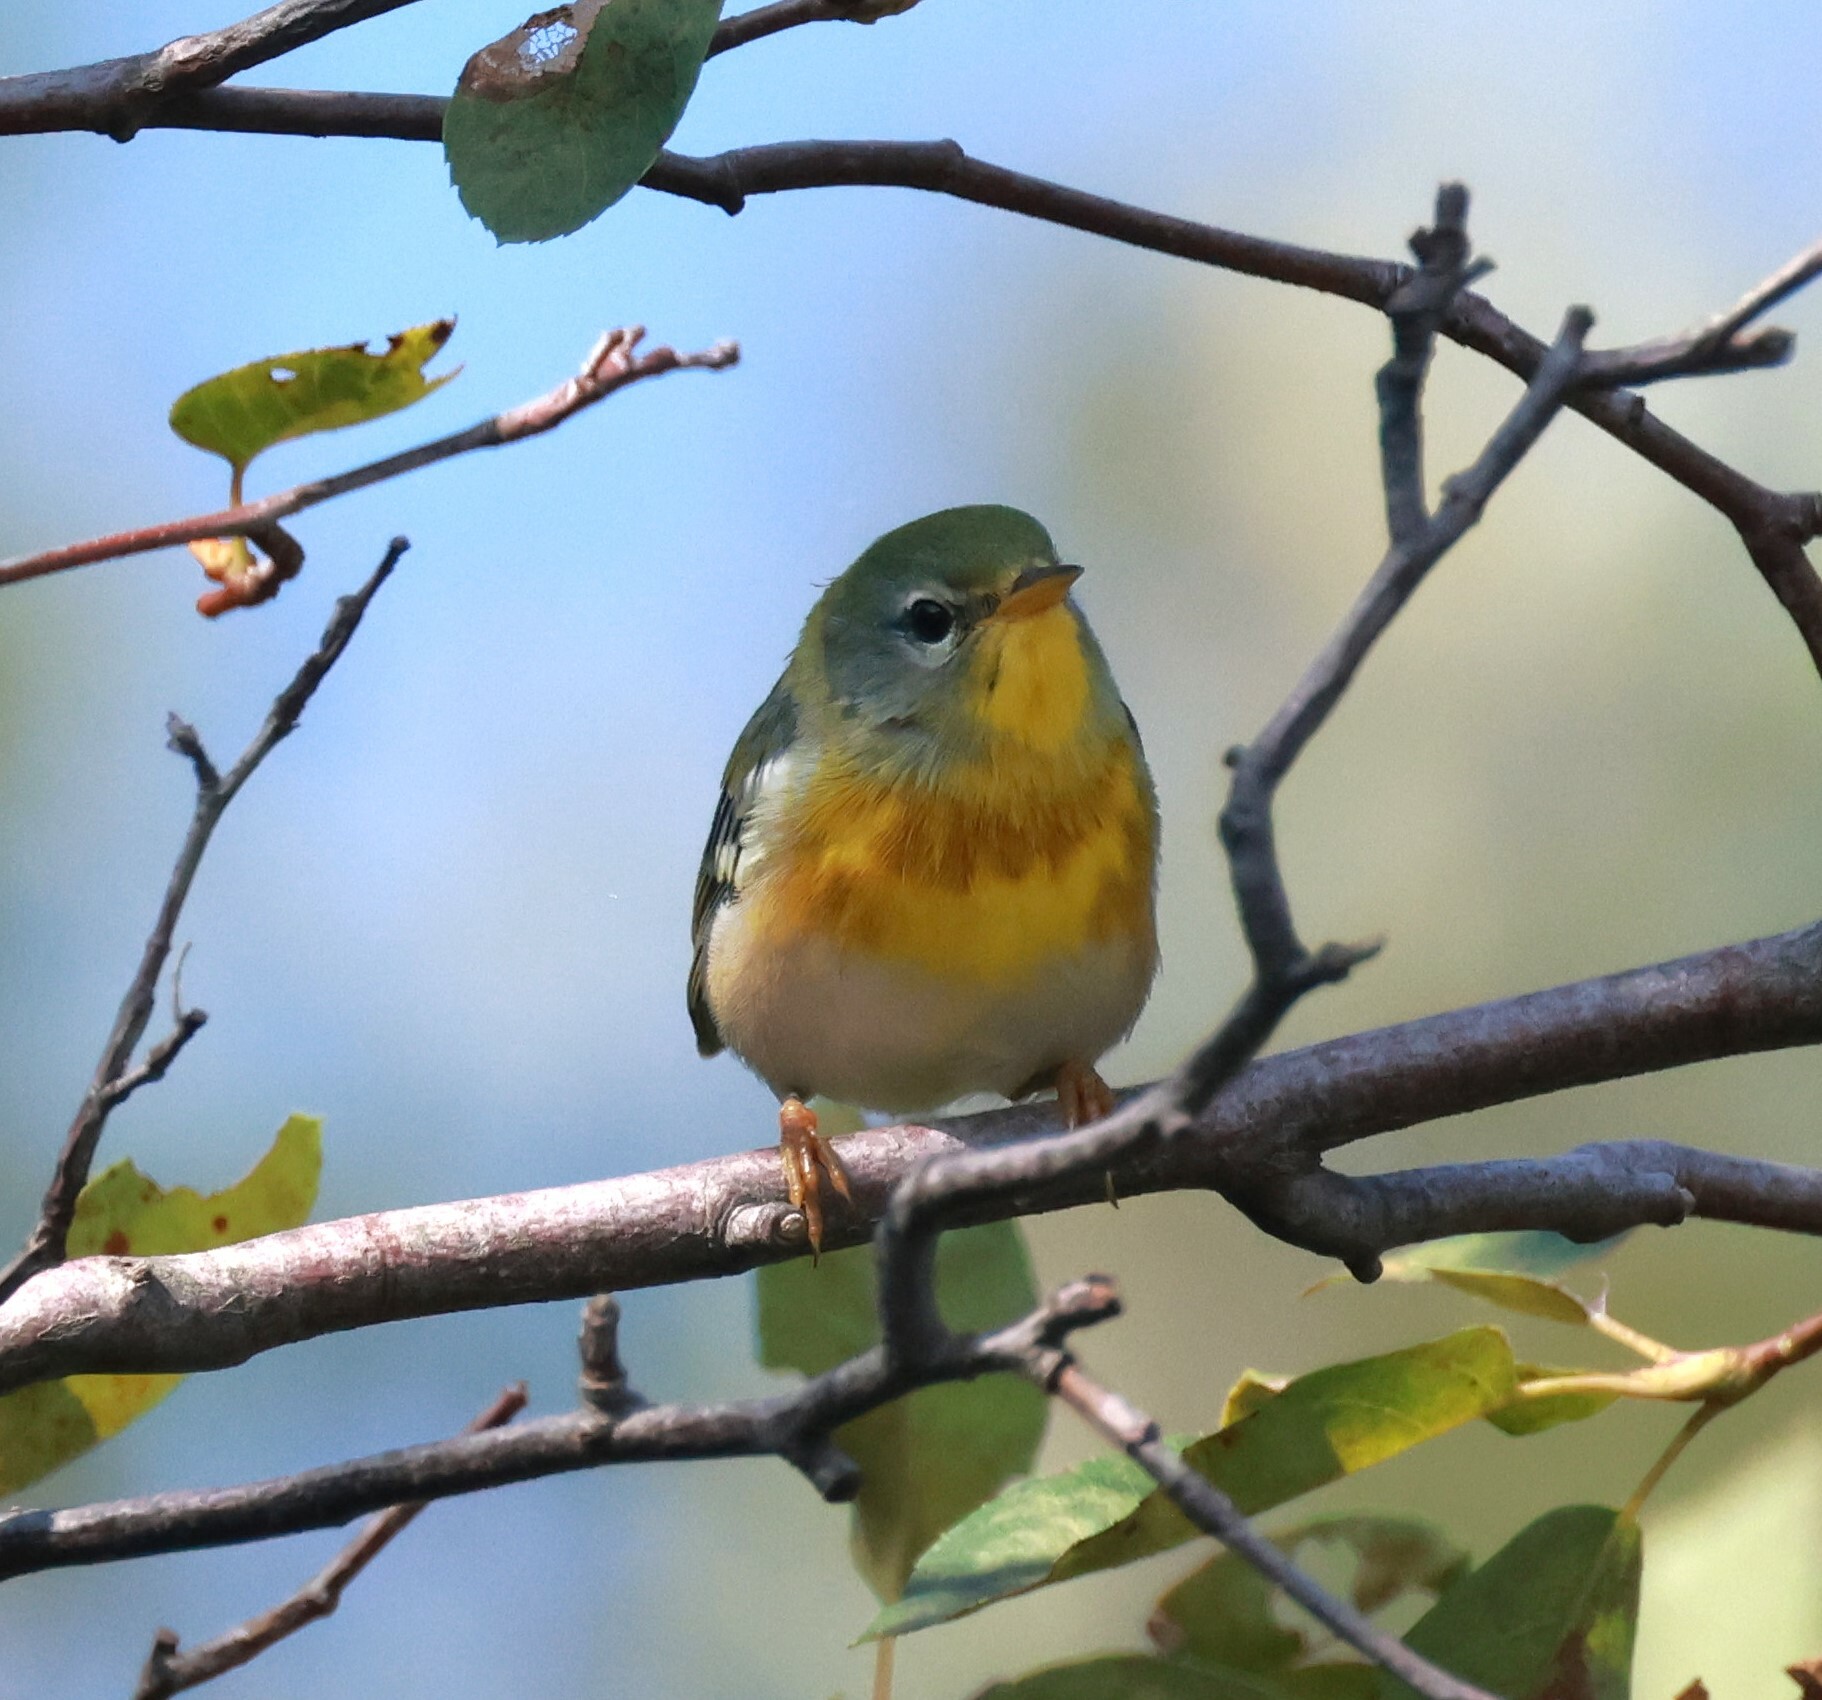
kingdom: Animalia
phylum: Chordata
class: Aves
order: Passeriformes
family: Parulidae
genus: Setophaga
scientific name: Setophaga americana
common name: Northern parula
